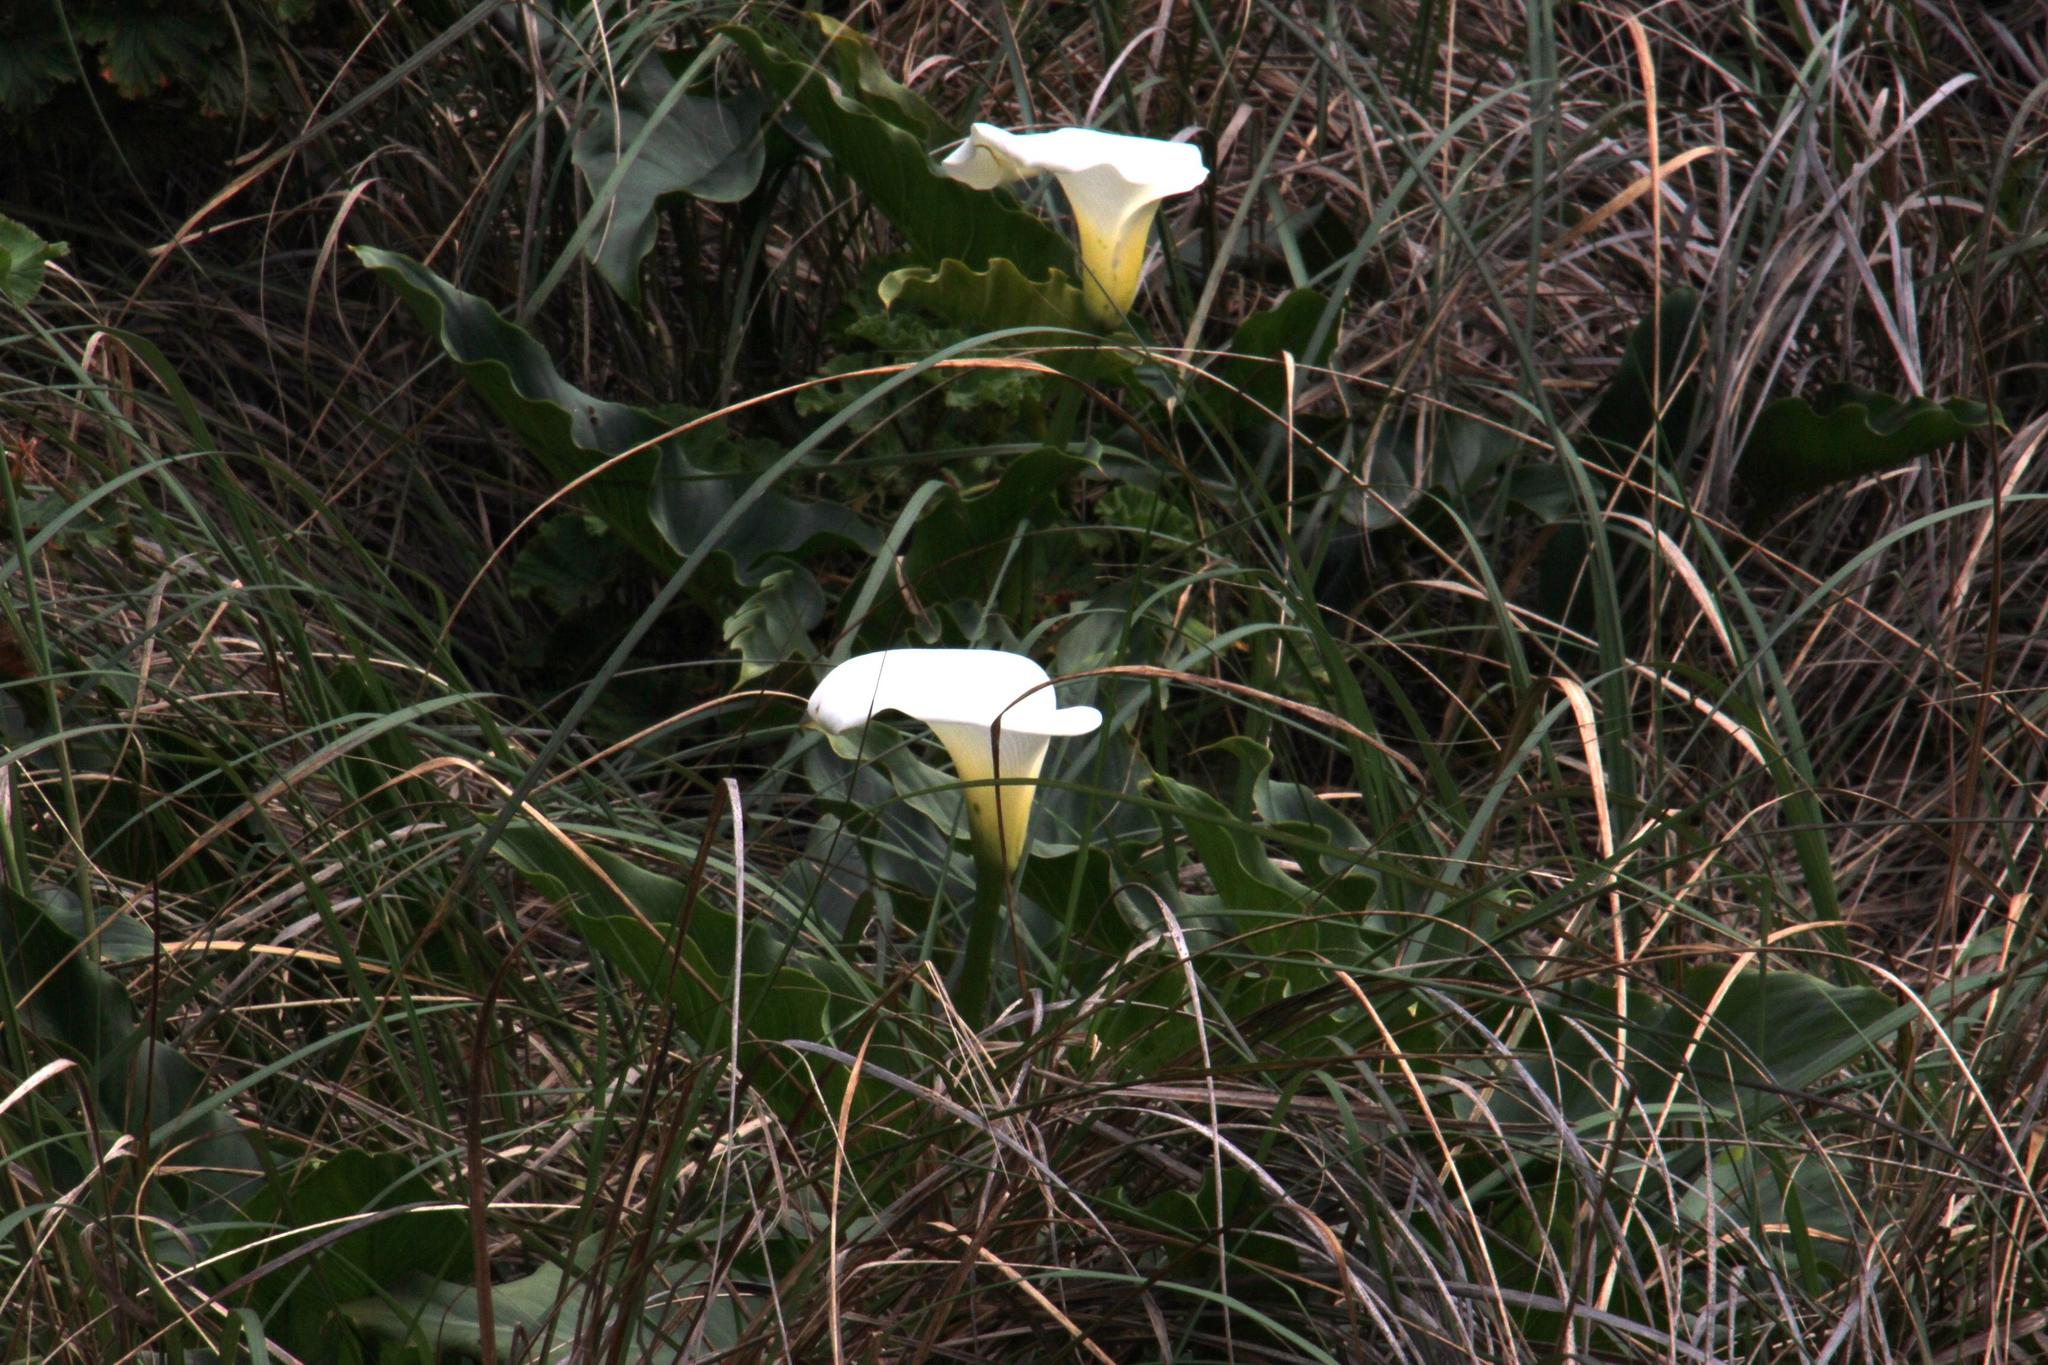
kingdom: Plantae
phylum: Tracheophyta
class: Liliopsida
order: Alismatales
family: Araceae
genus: Zantedeschia
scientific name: Zantedeschia aethiopica
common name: Altar-lily
